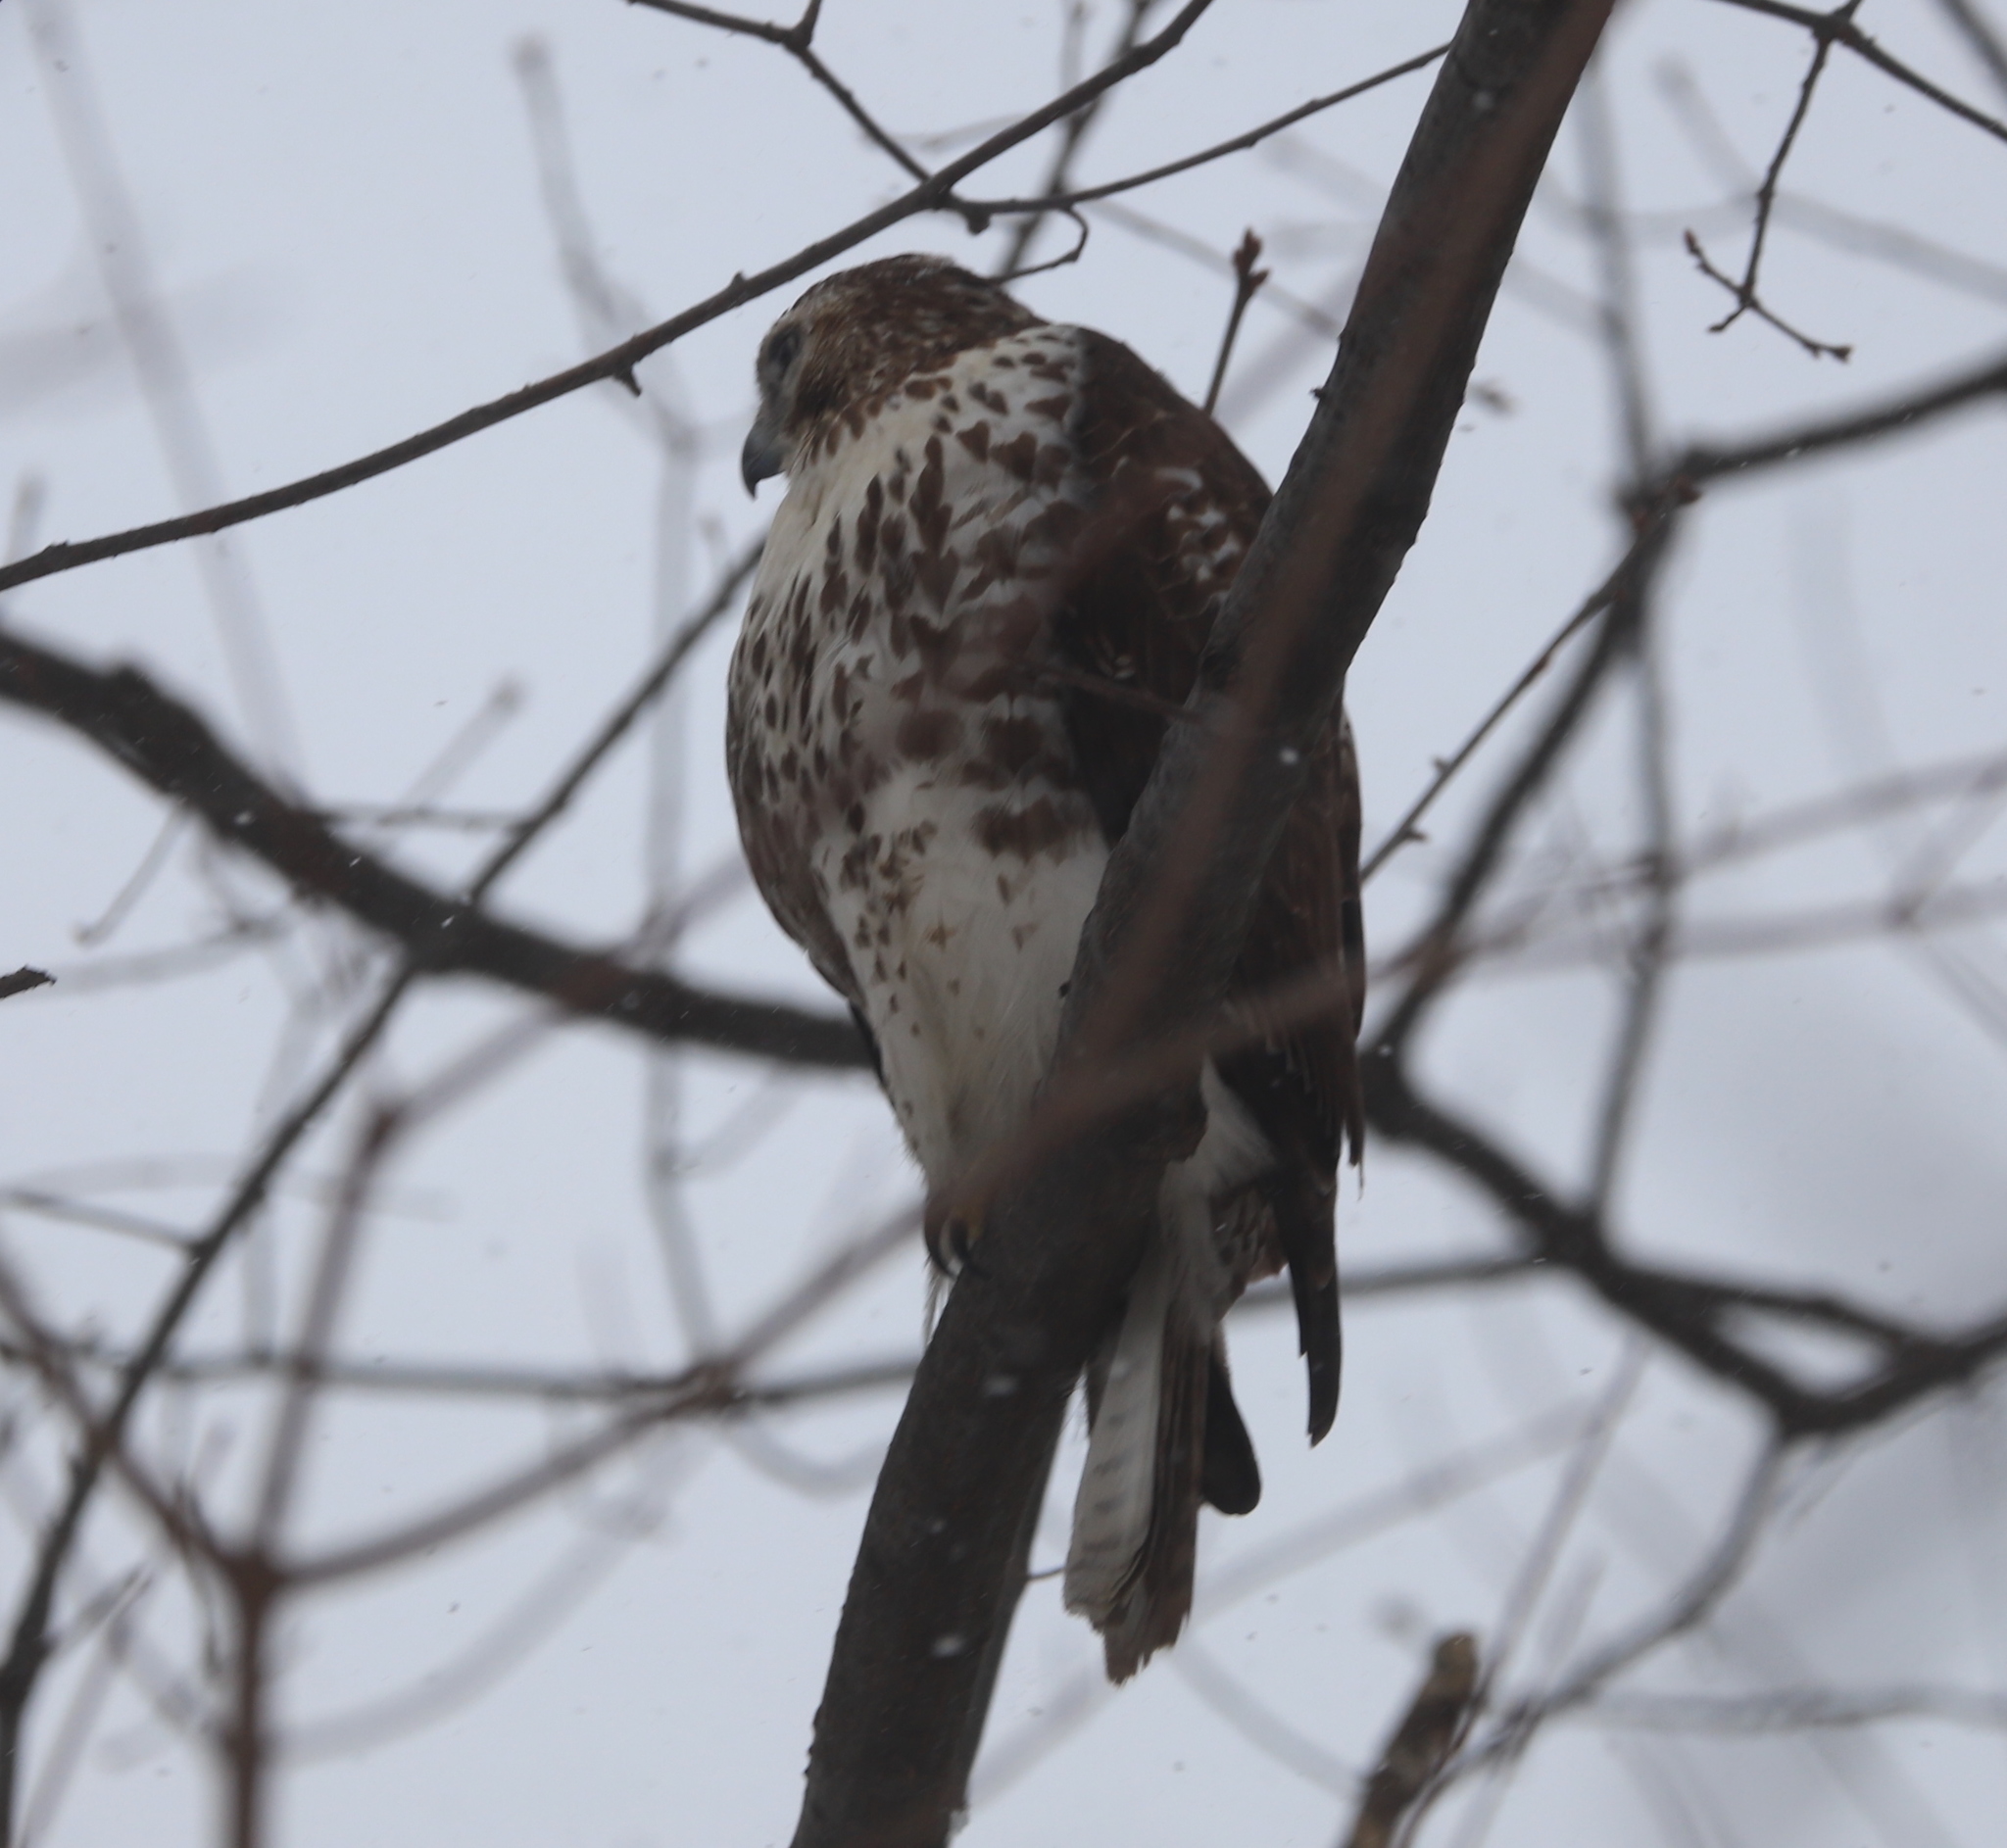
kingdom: Animalia
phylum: Chordata
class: Aves
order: Accipitriformes
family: Accipitridae
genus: Buteo
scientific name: Buteo jamaicensis
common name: Red-tailed hawk
